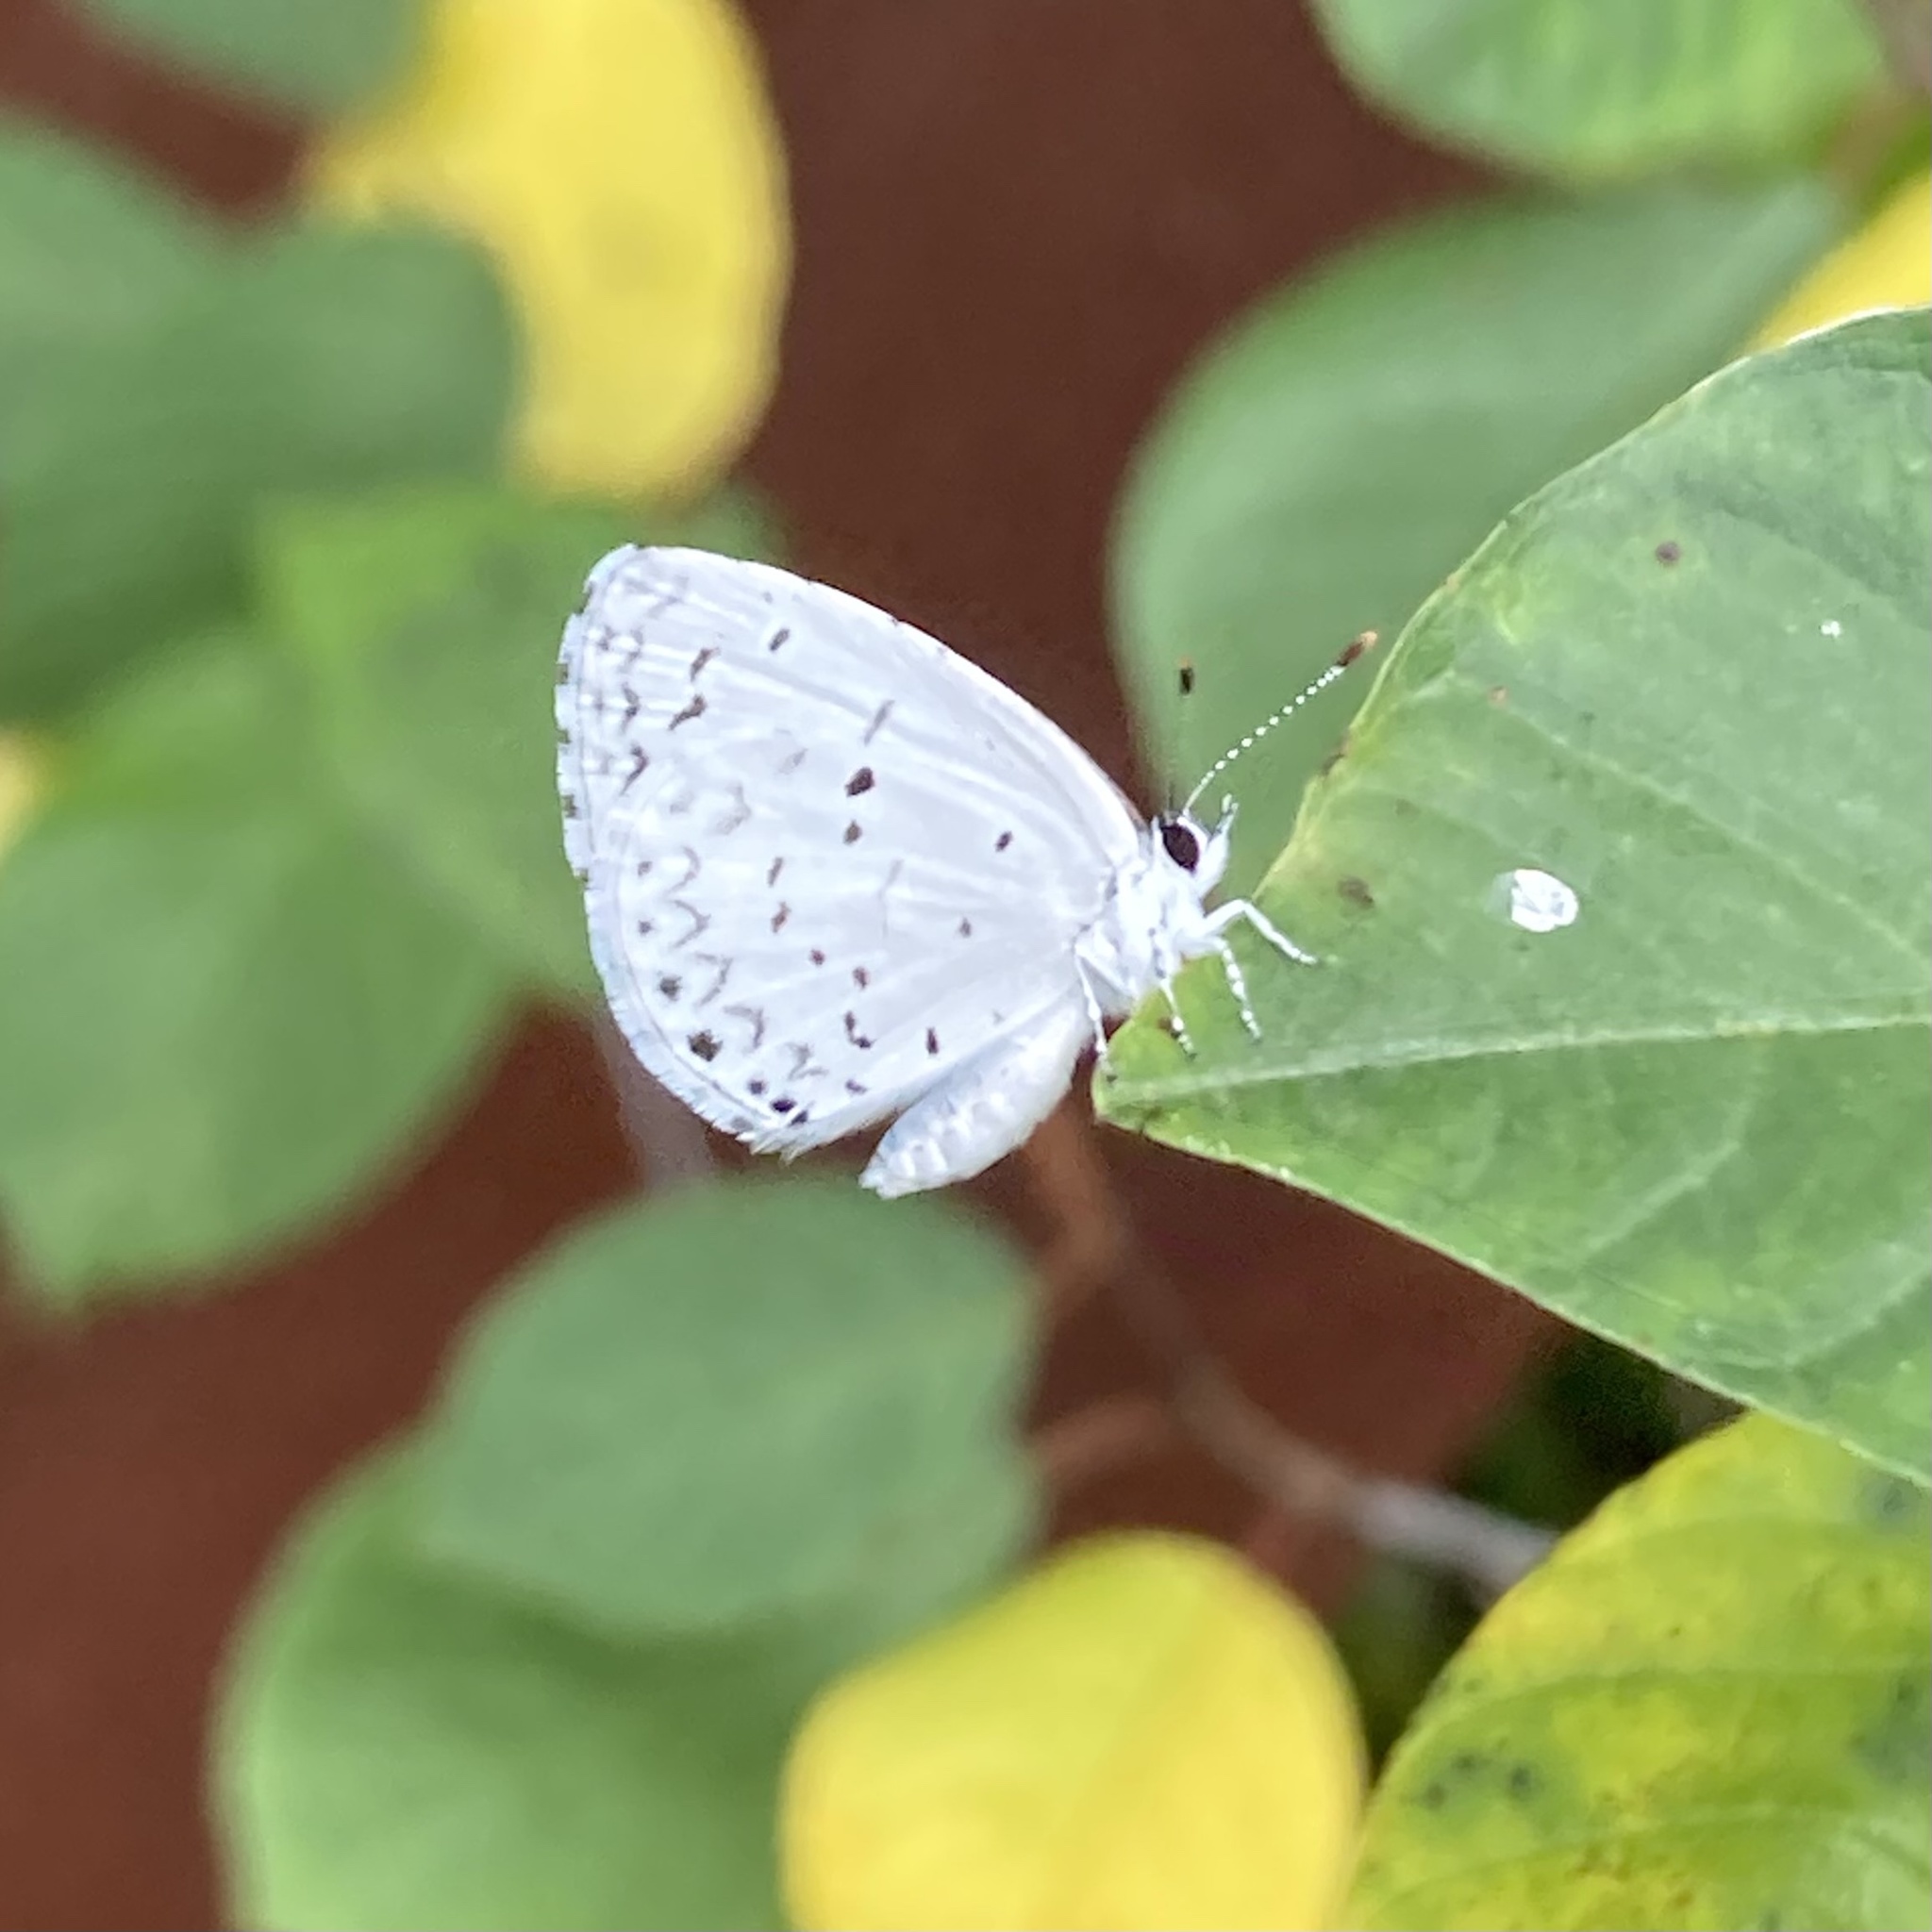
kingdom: Animalia
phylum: Arthropoda
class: Insecta
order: Lepidoptera
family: Lycaenidae
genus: Cyaniris
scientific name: Cyaniris neglecta
